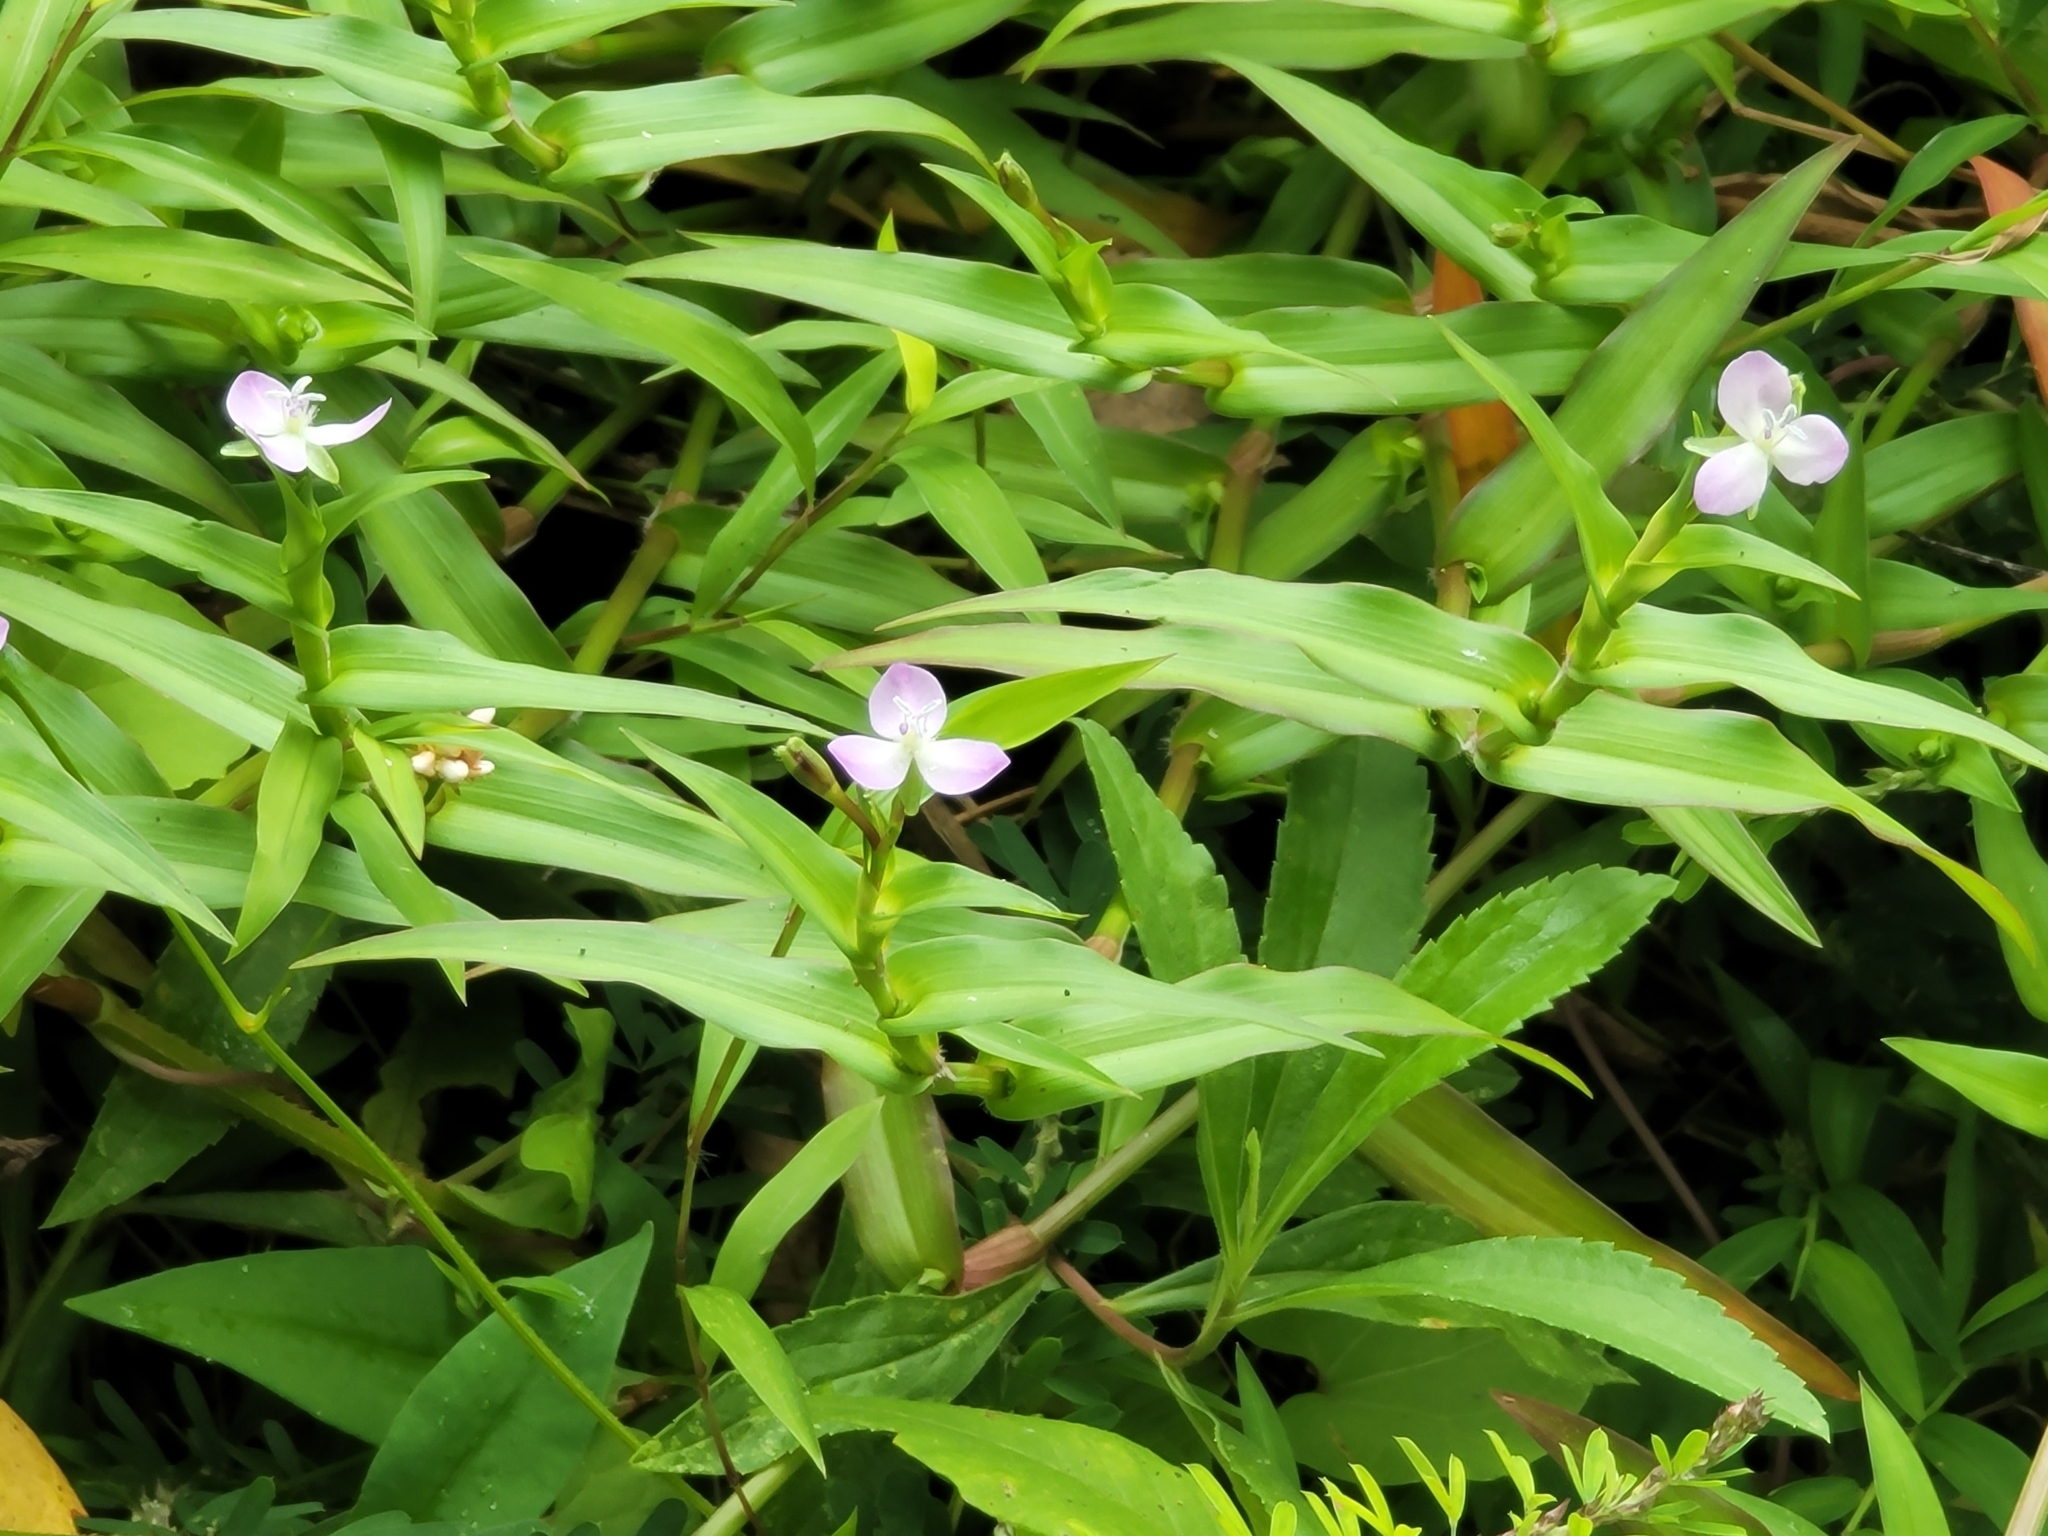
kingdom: Plantae
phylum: Tracheophyta
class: Liliopsida
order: Commelinales
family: Commelinaceae
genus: Murdannia
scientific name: Murdannia keisak
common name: Wartremoving herb
